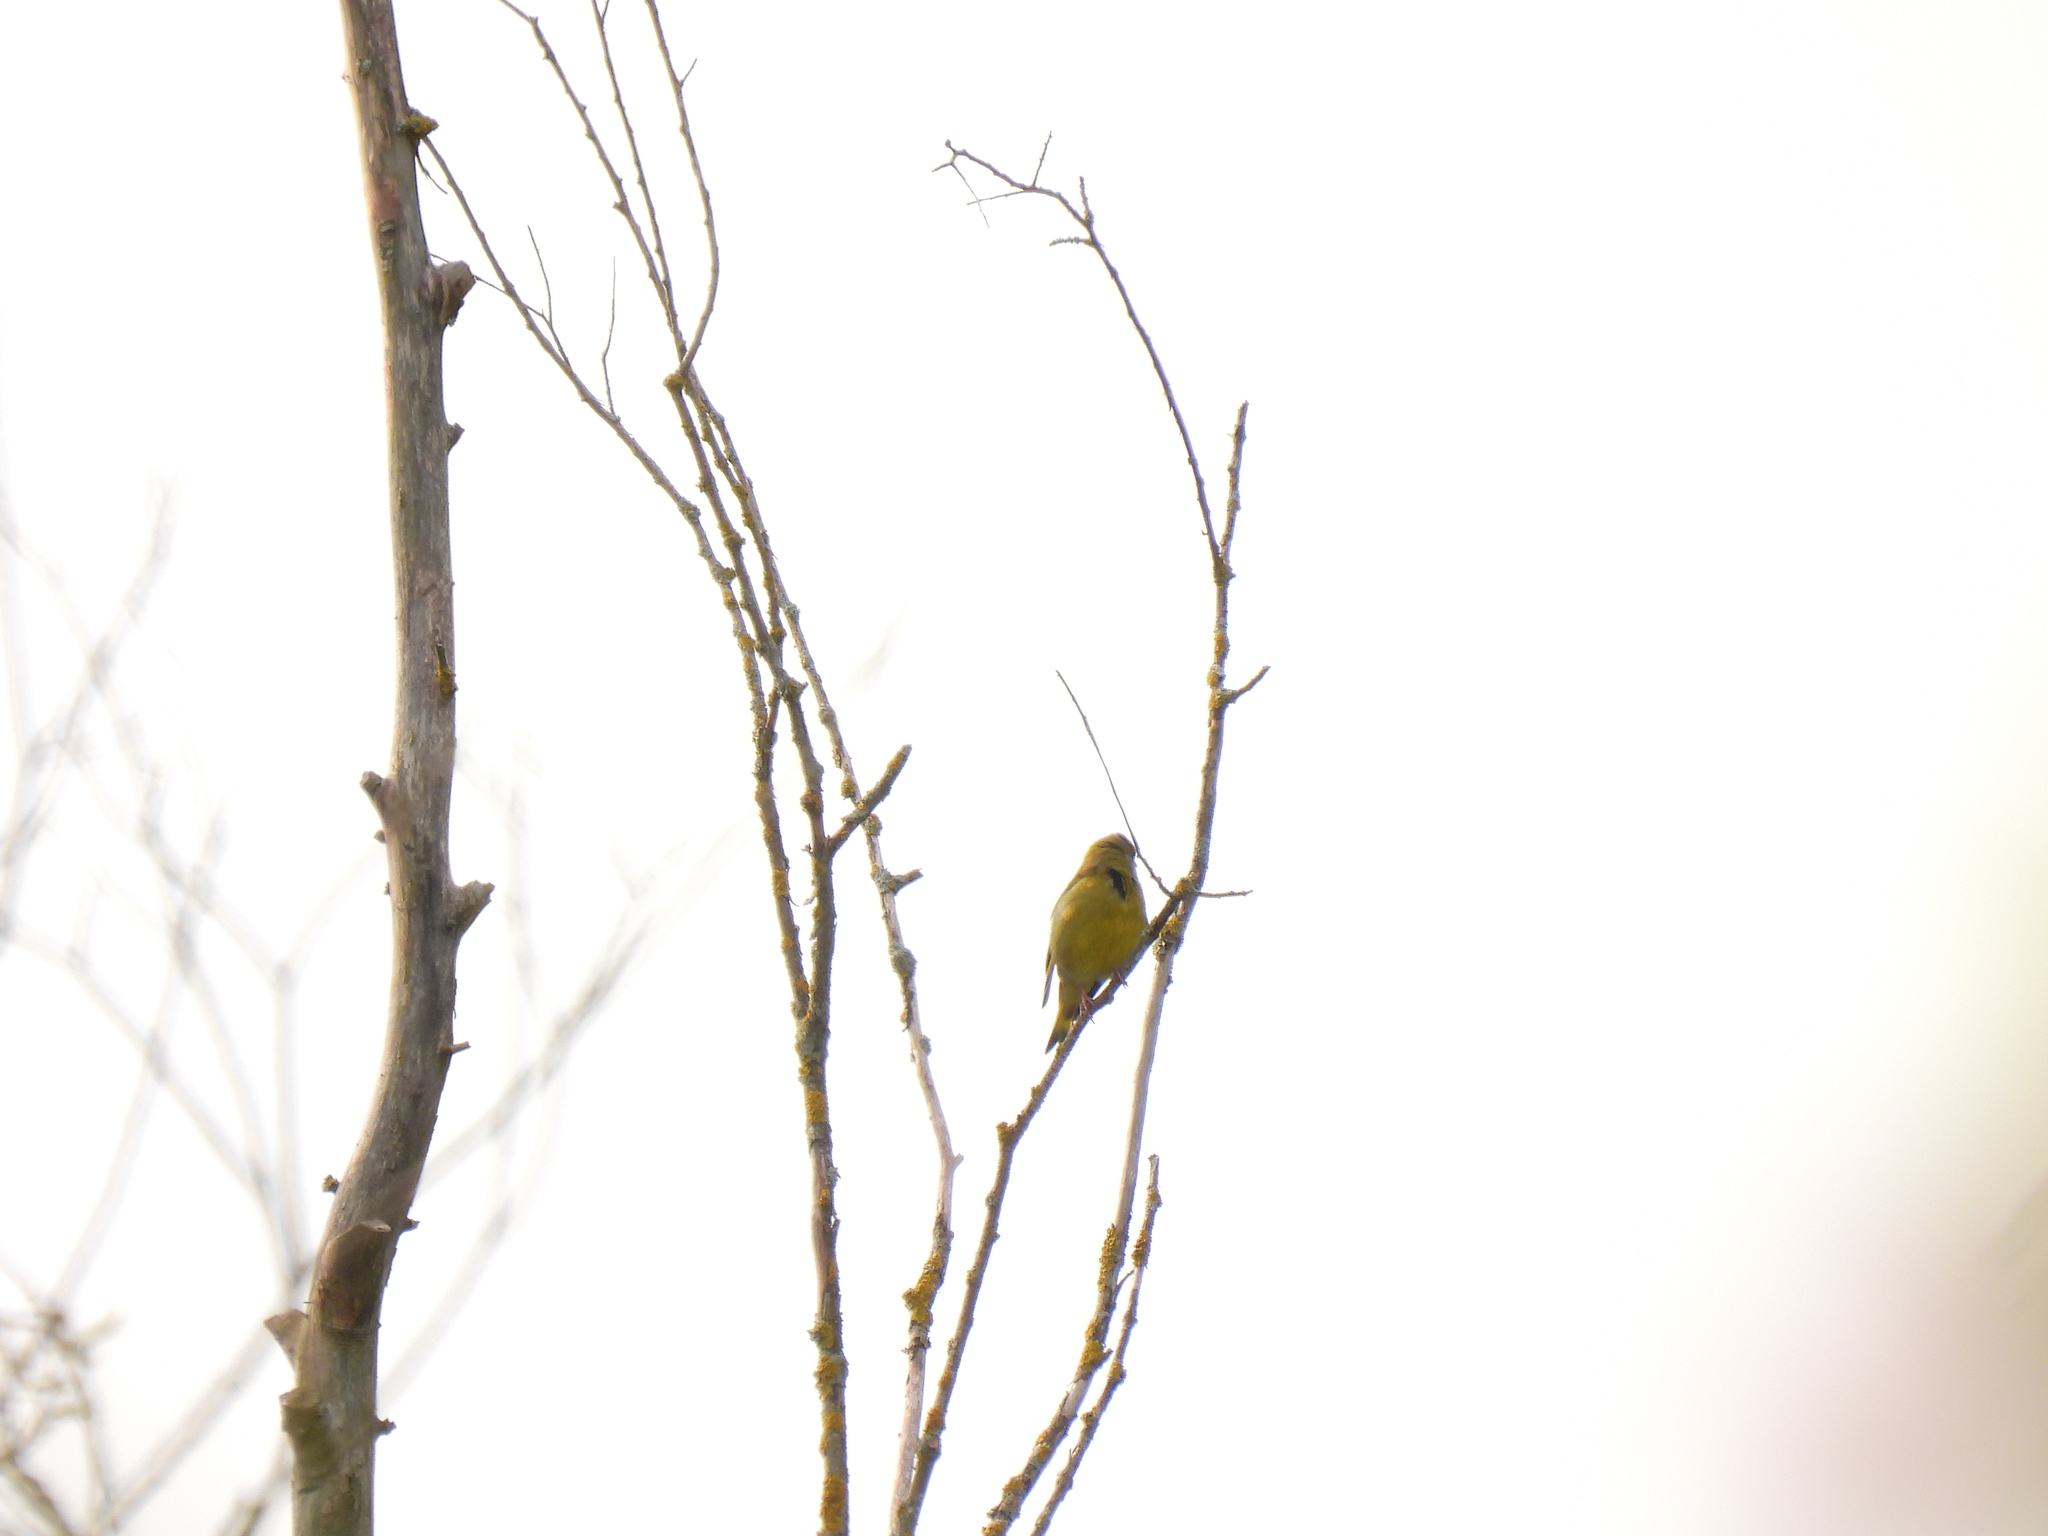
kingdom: Plantae
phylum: Tracheophyta
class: Liliopsida
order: Poales
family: Poaceae
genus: Chloris
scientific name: Chloris chloris
